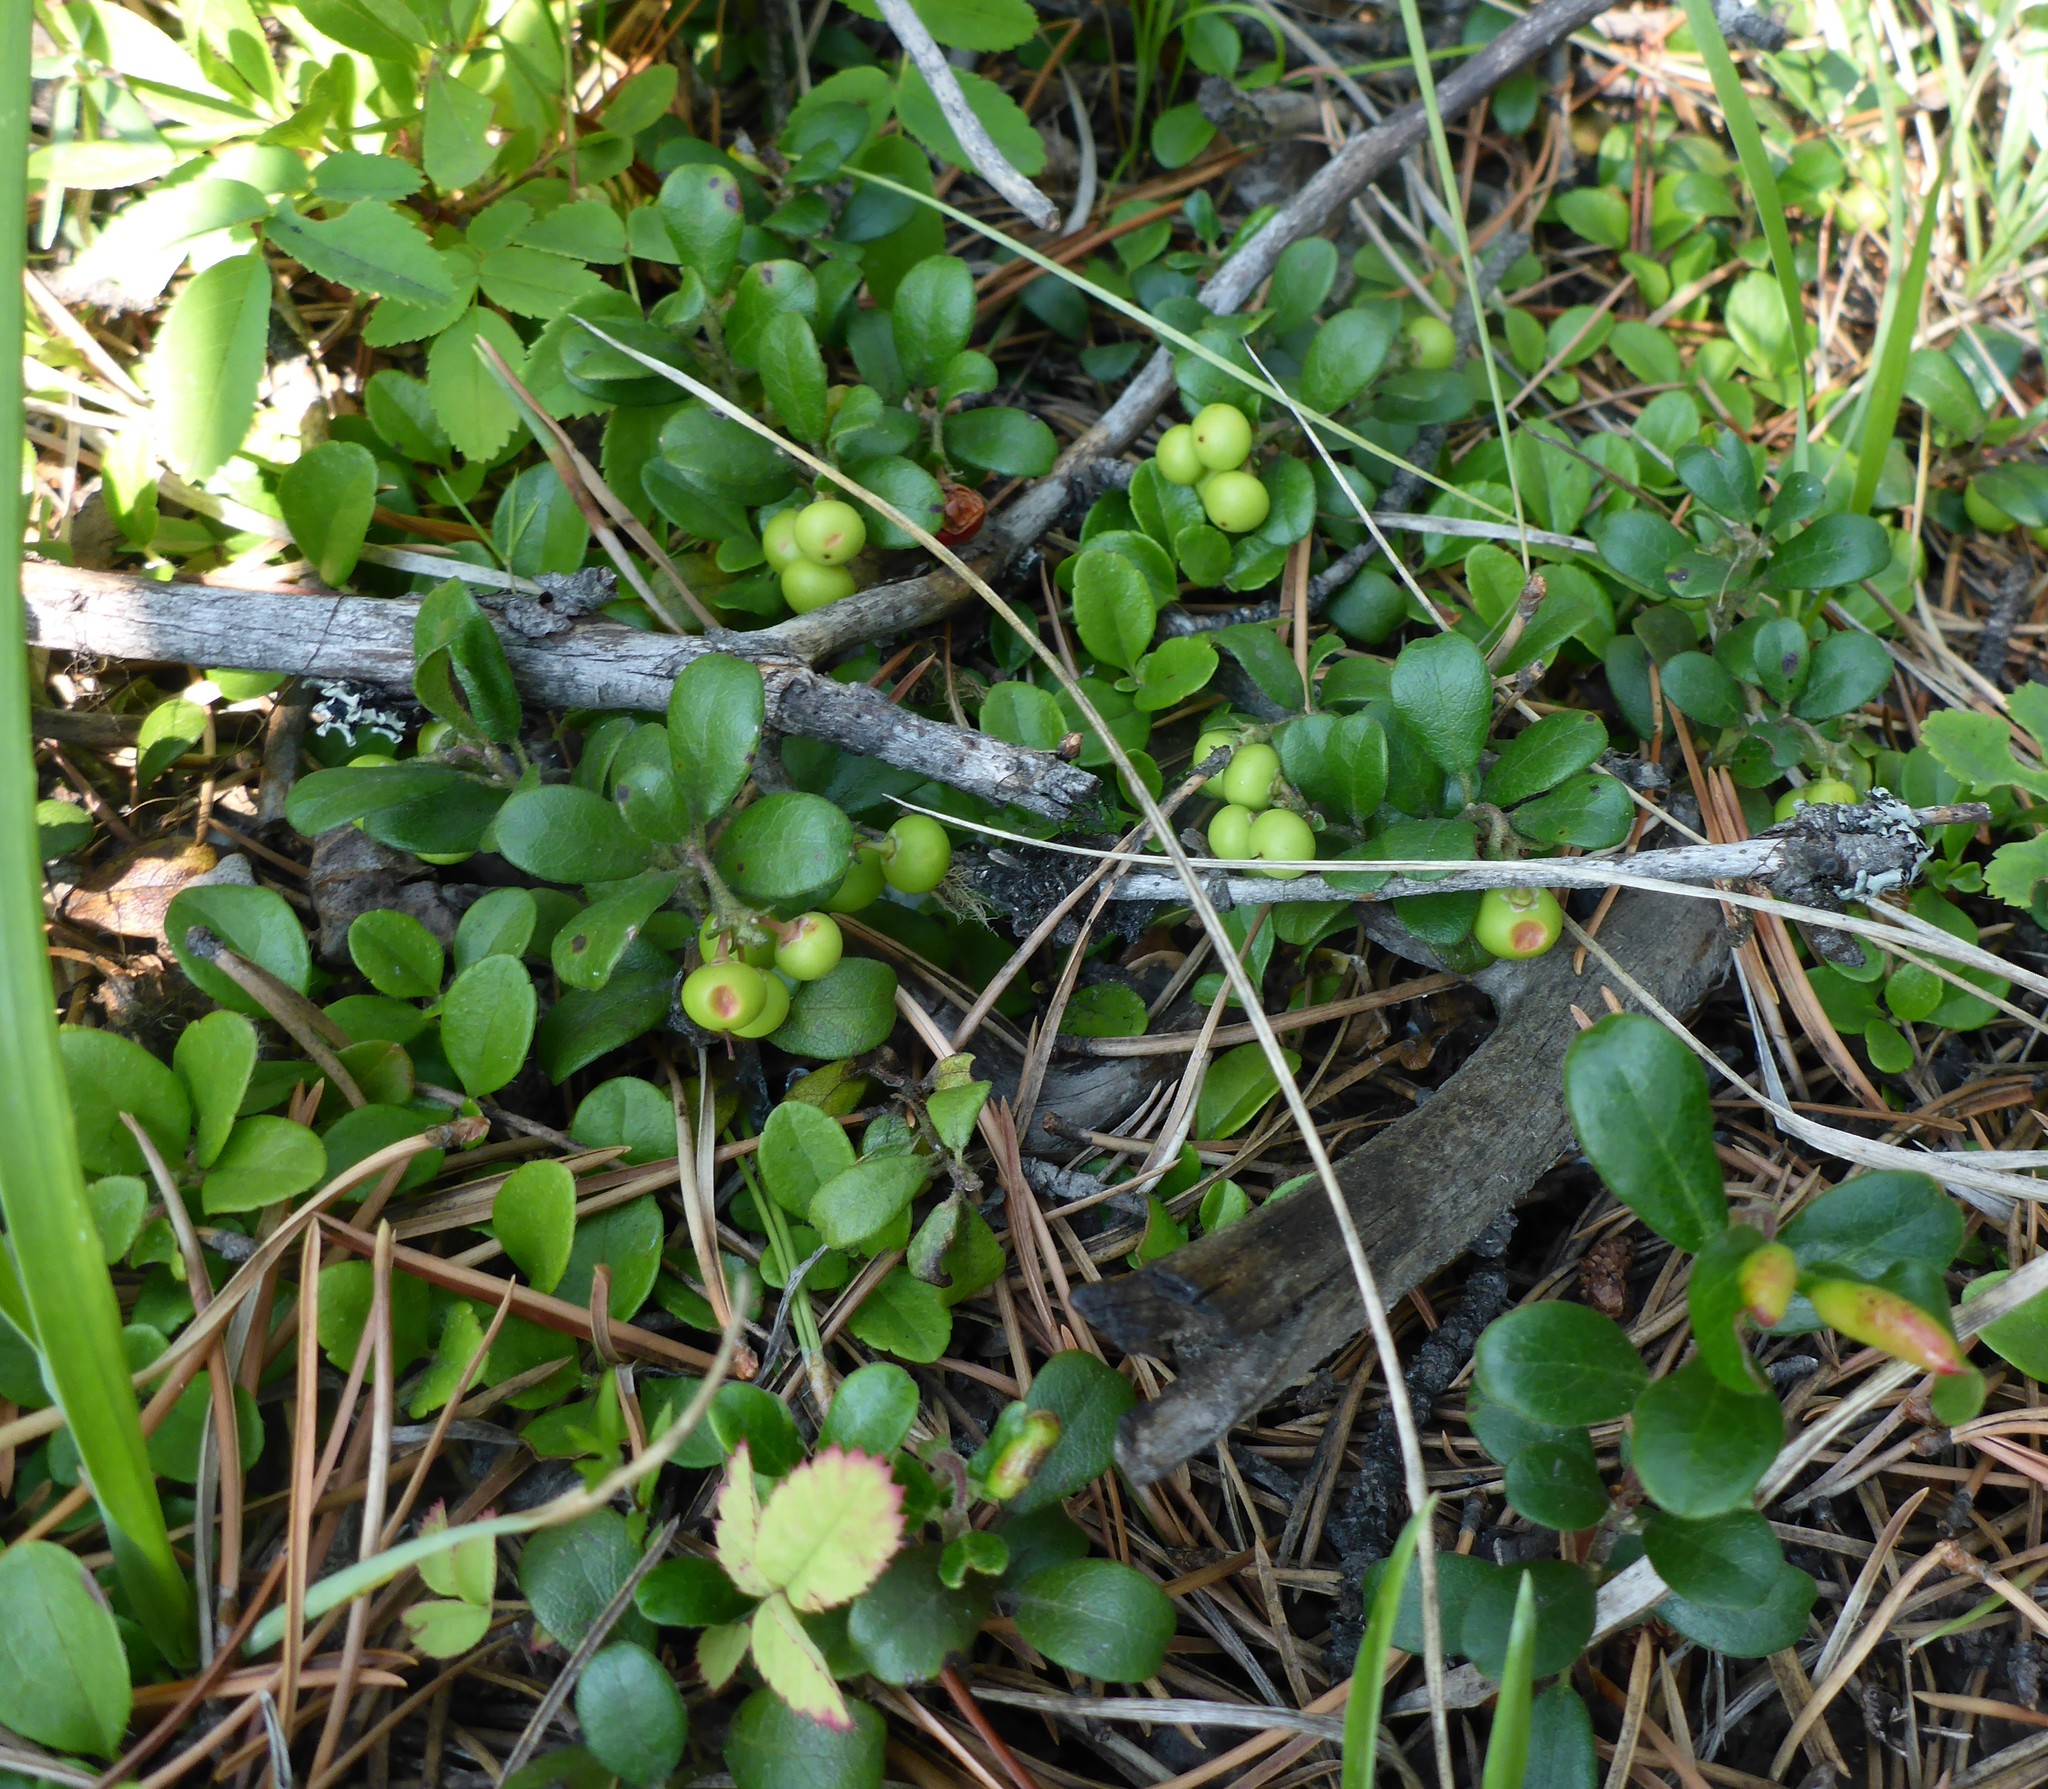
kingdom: Plantae
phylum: Tracheophyta
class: Magnoliopsida
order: Ericales
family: Ericaceae
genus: Arctostaphylos
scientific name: Arctostaphylos uva-ursi
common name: Bearberry
